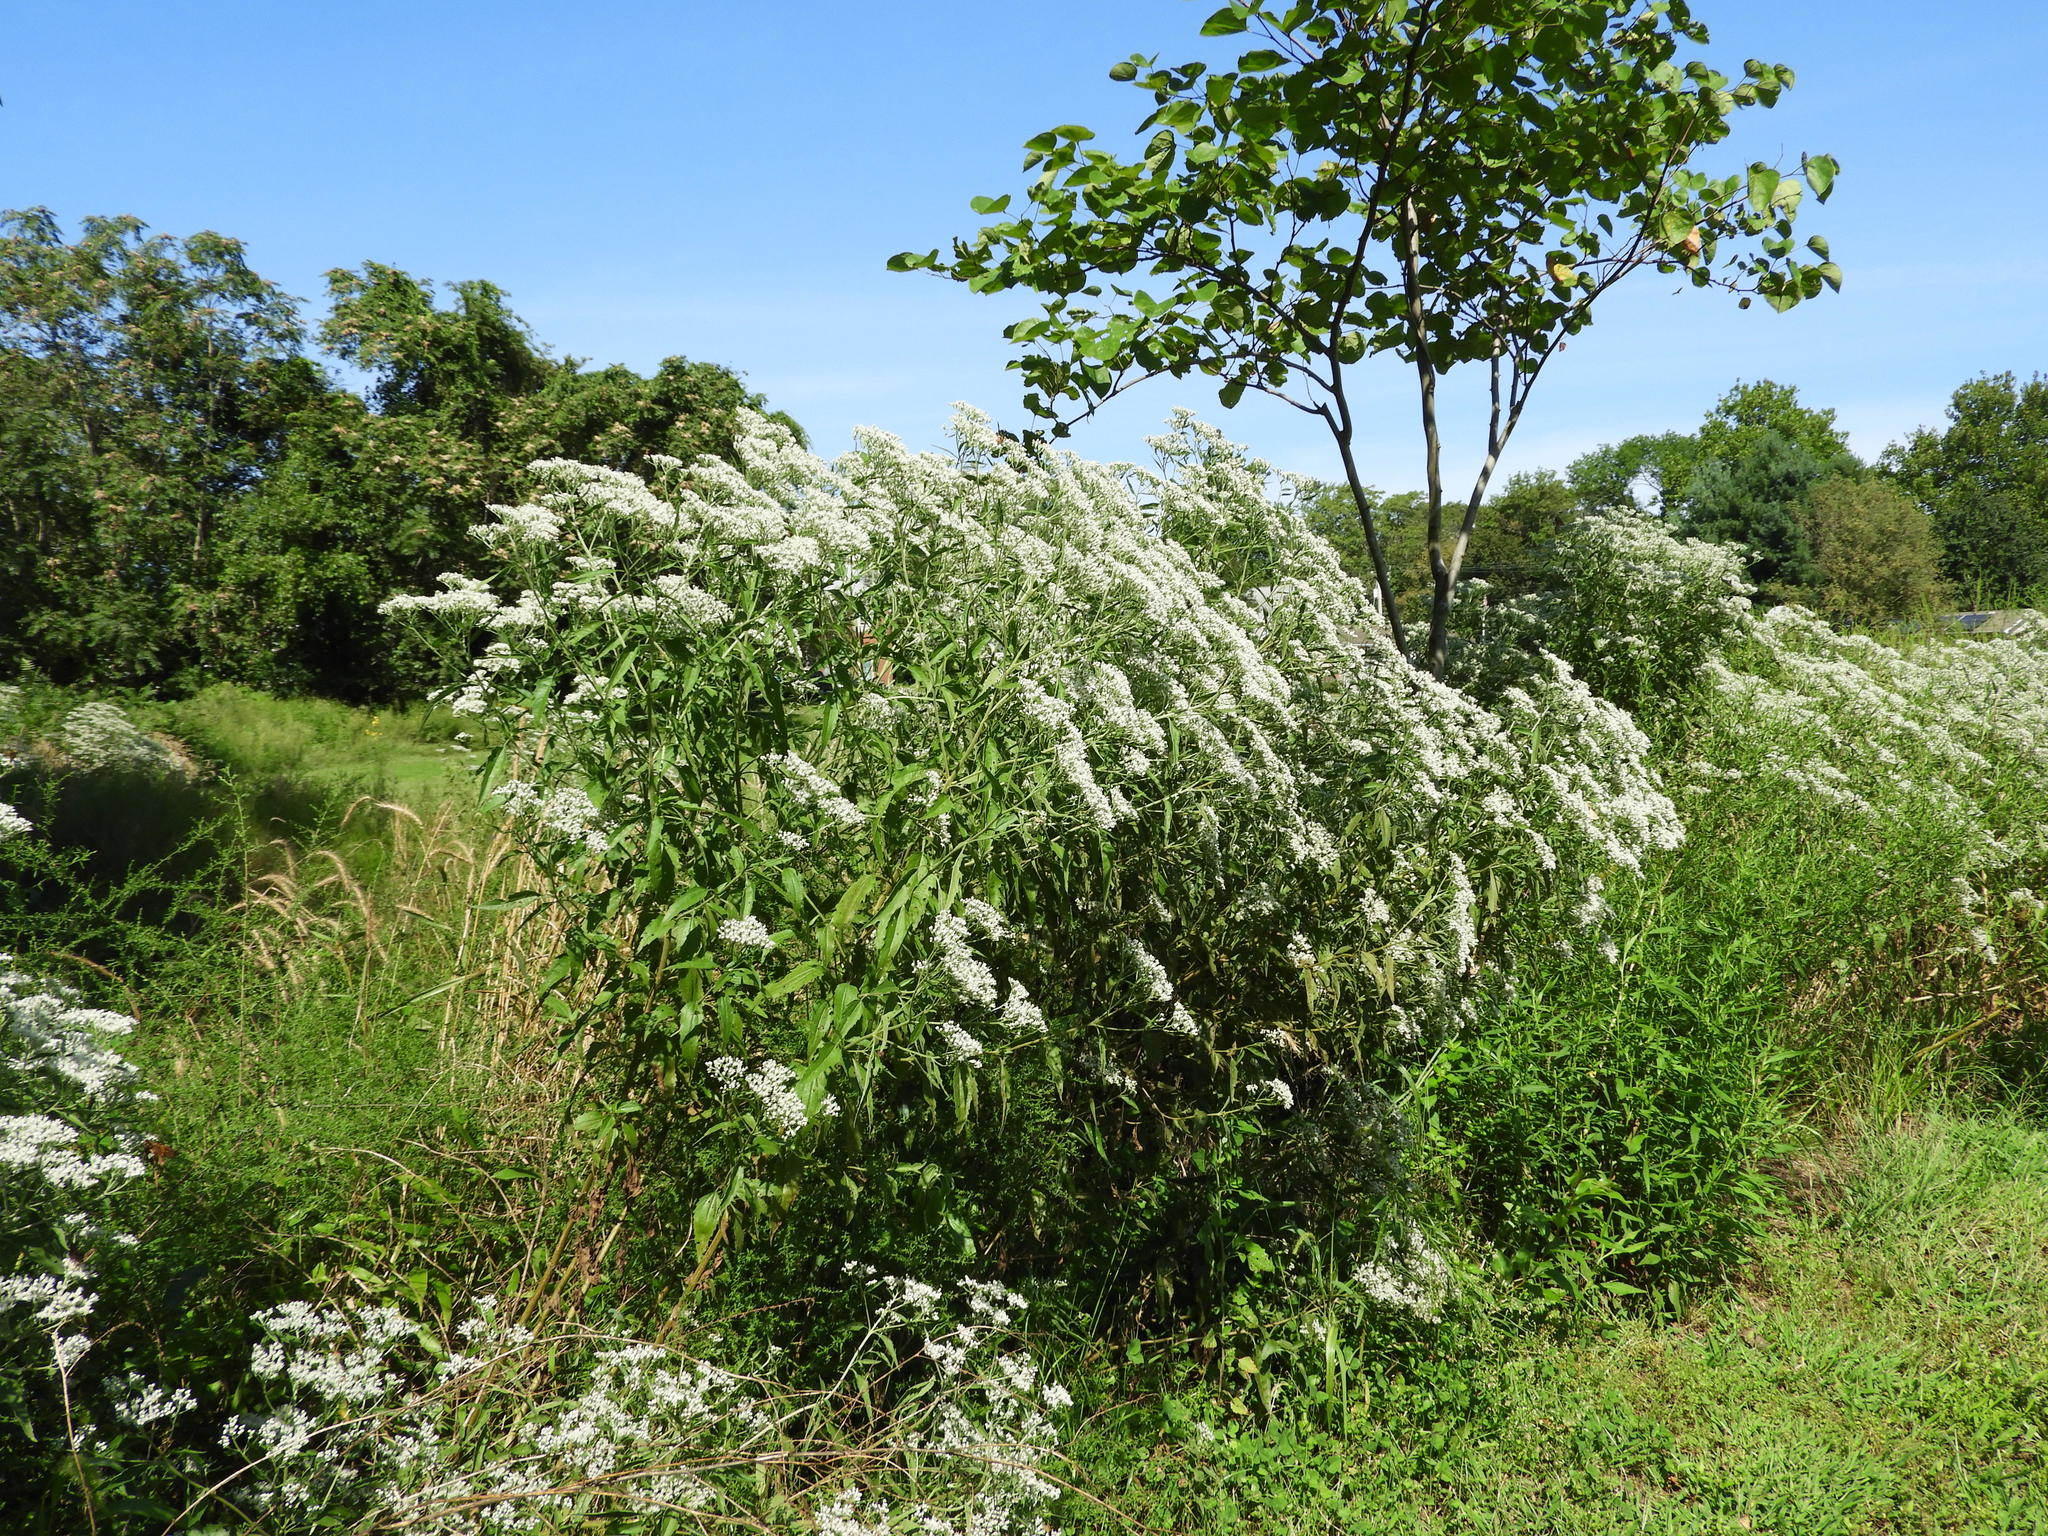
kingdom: Plantae
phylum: Tracheophyta
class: Magnoliopsida
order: Asterales
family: Asteraceae
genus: Eupatorium
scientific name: Eupatorium serotinum
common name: Late boneset
